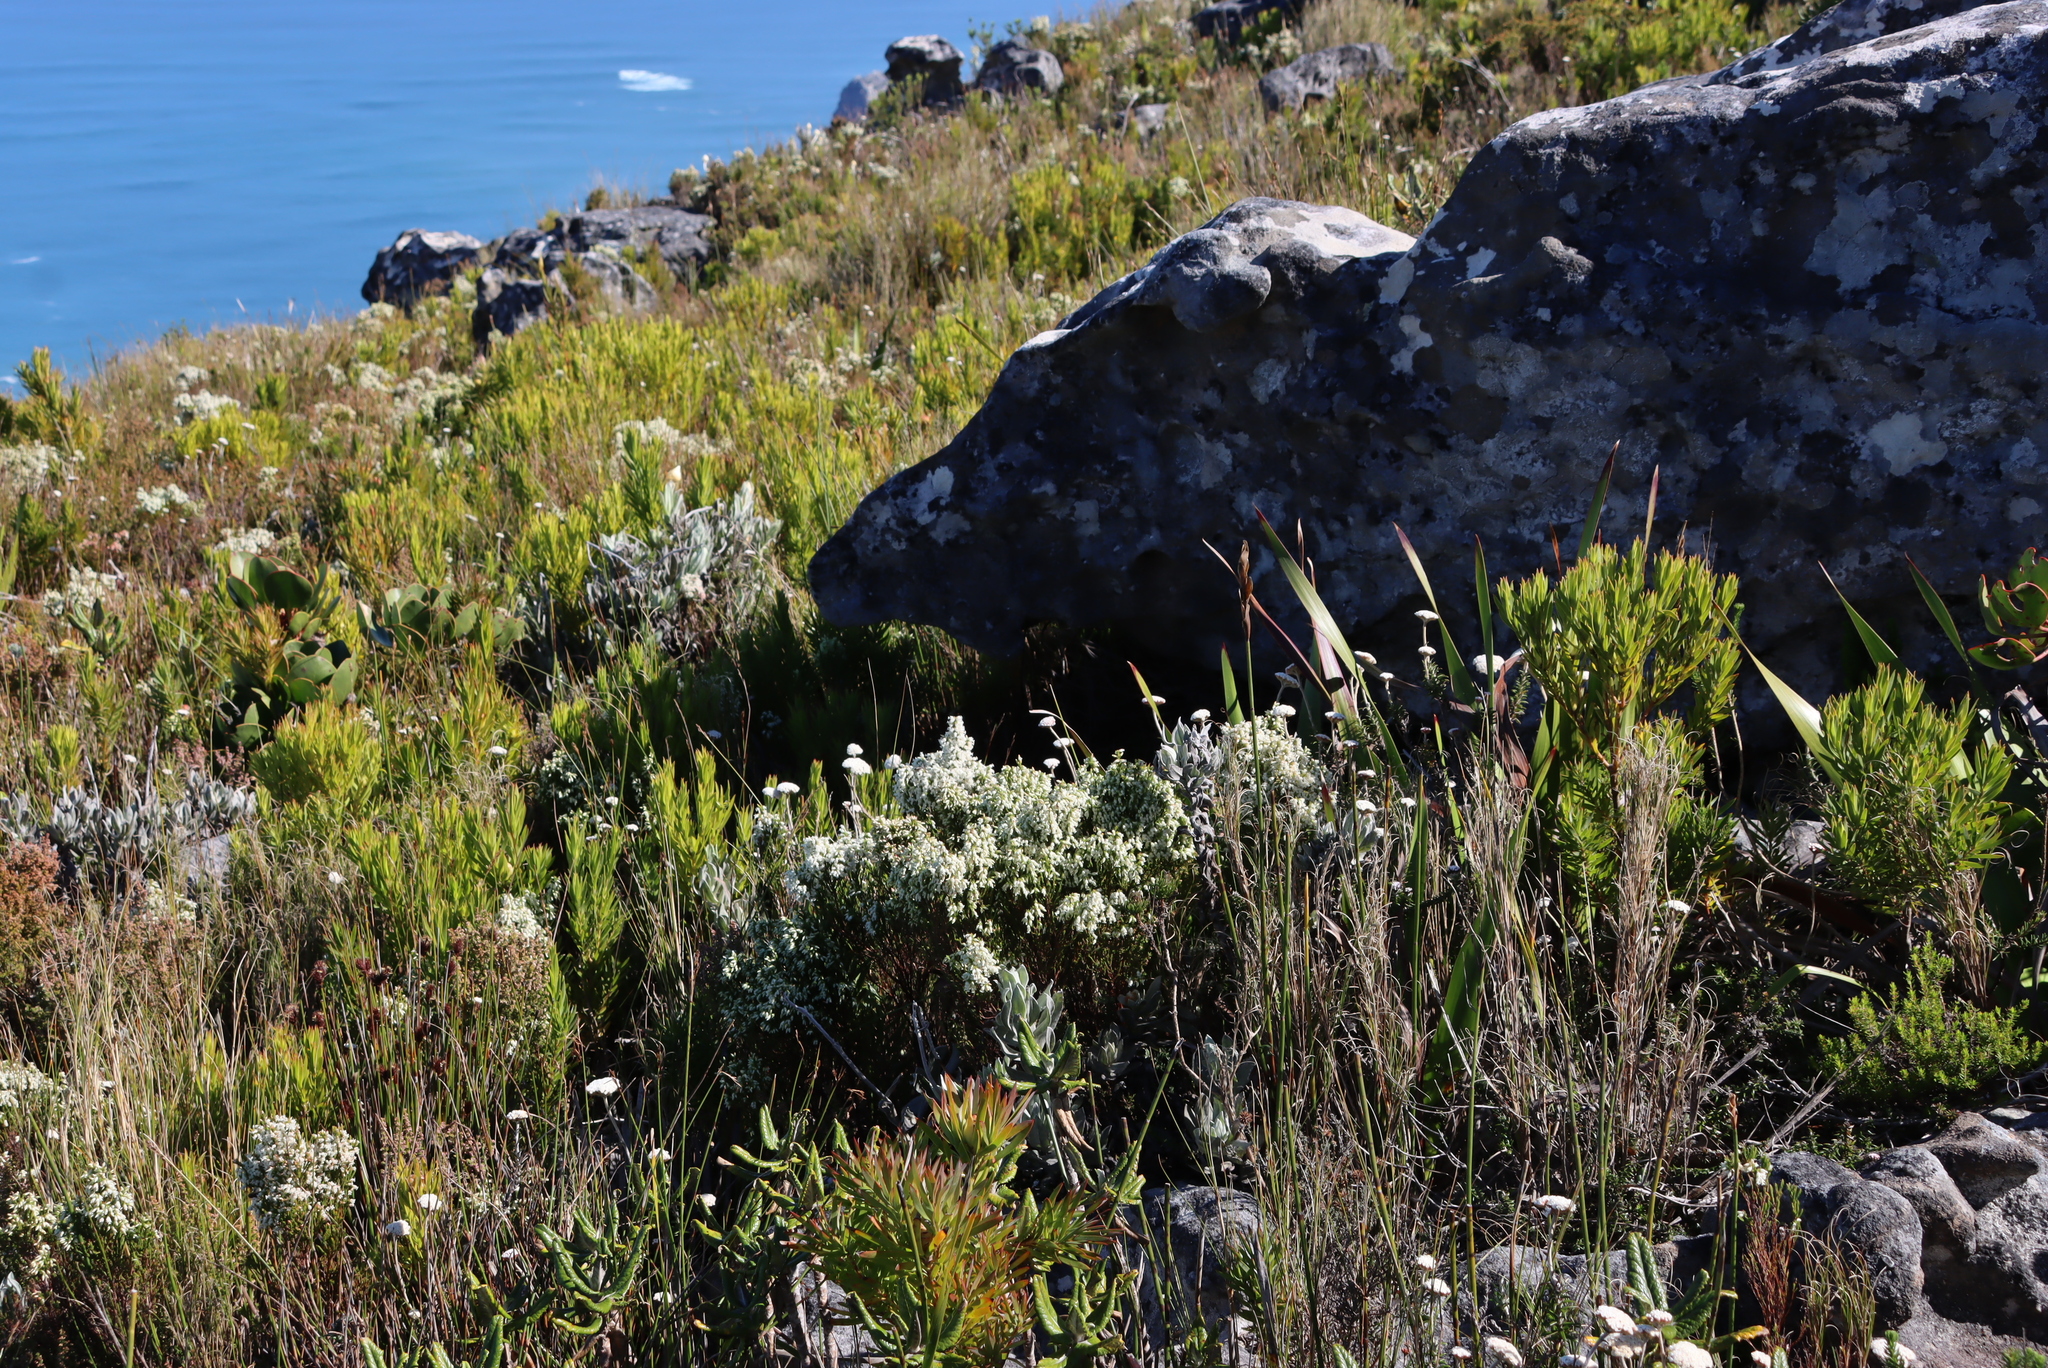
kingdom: Plantae
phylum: Tracheophyta
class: Magnoliopsida
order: Ericales
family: Ericaceae
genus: Erica
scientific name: Erica lutea
